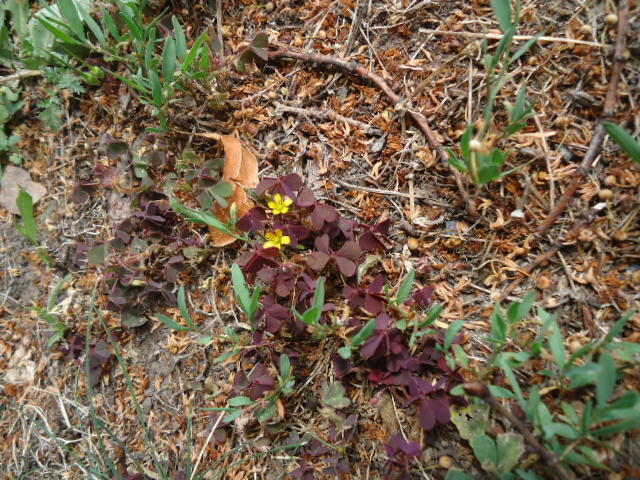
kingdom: Plantae
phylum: Tracheophyta
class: Magnoliopsida
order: Oxalidales
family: Oxalidaceae
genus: Oxalis
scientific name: Oxalis corniculata
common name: Procumbent yellow-sorrel
